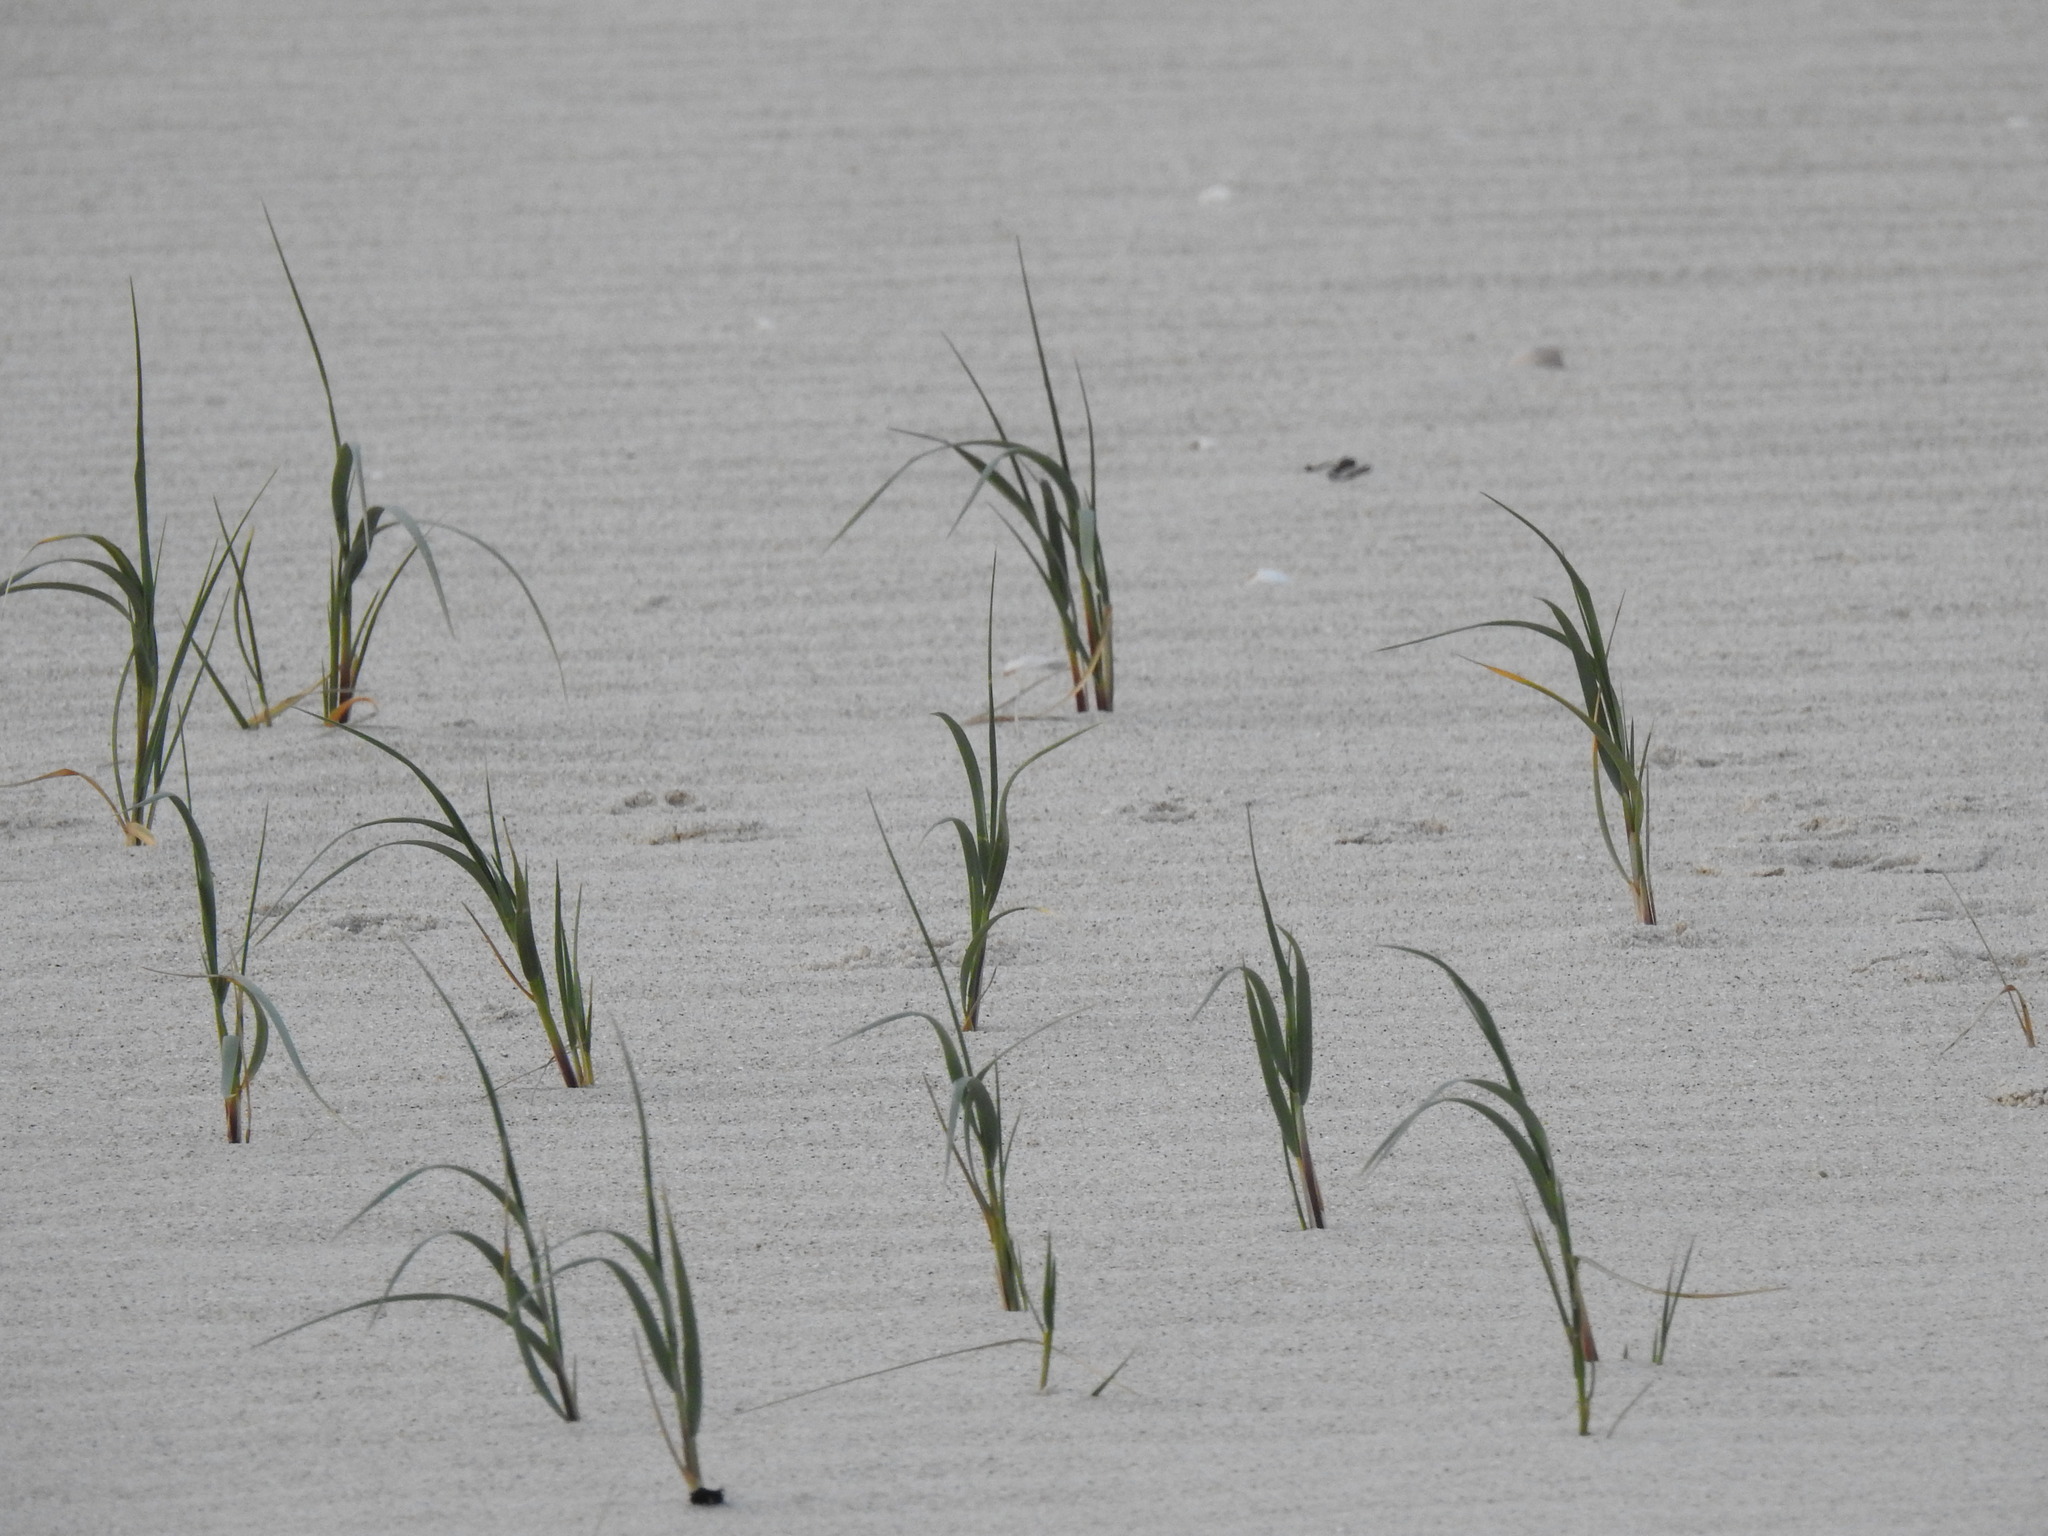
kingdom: Plantae
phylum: Tracheophyta
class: Liliopsida
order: Poales
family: Poaceae
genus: Thinopyrum
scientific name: Thinopyrum junceum
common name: Russian wheatgrass
